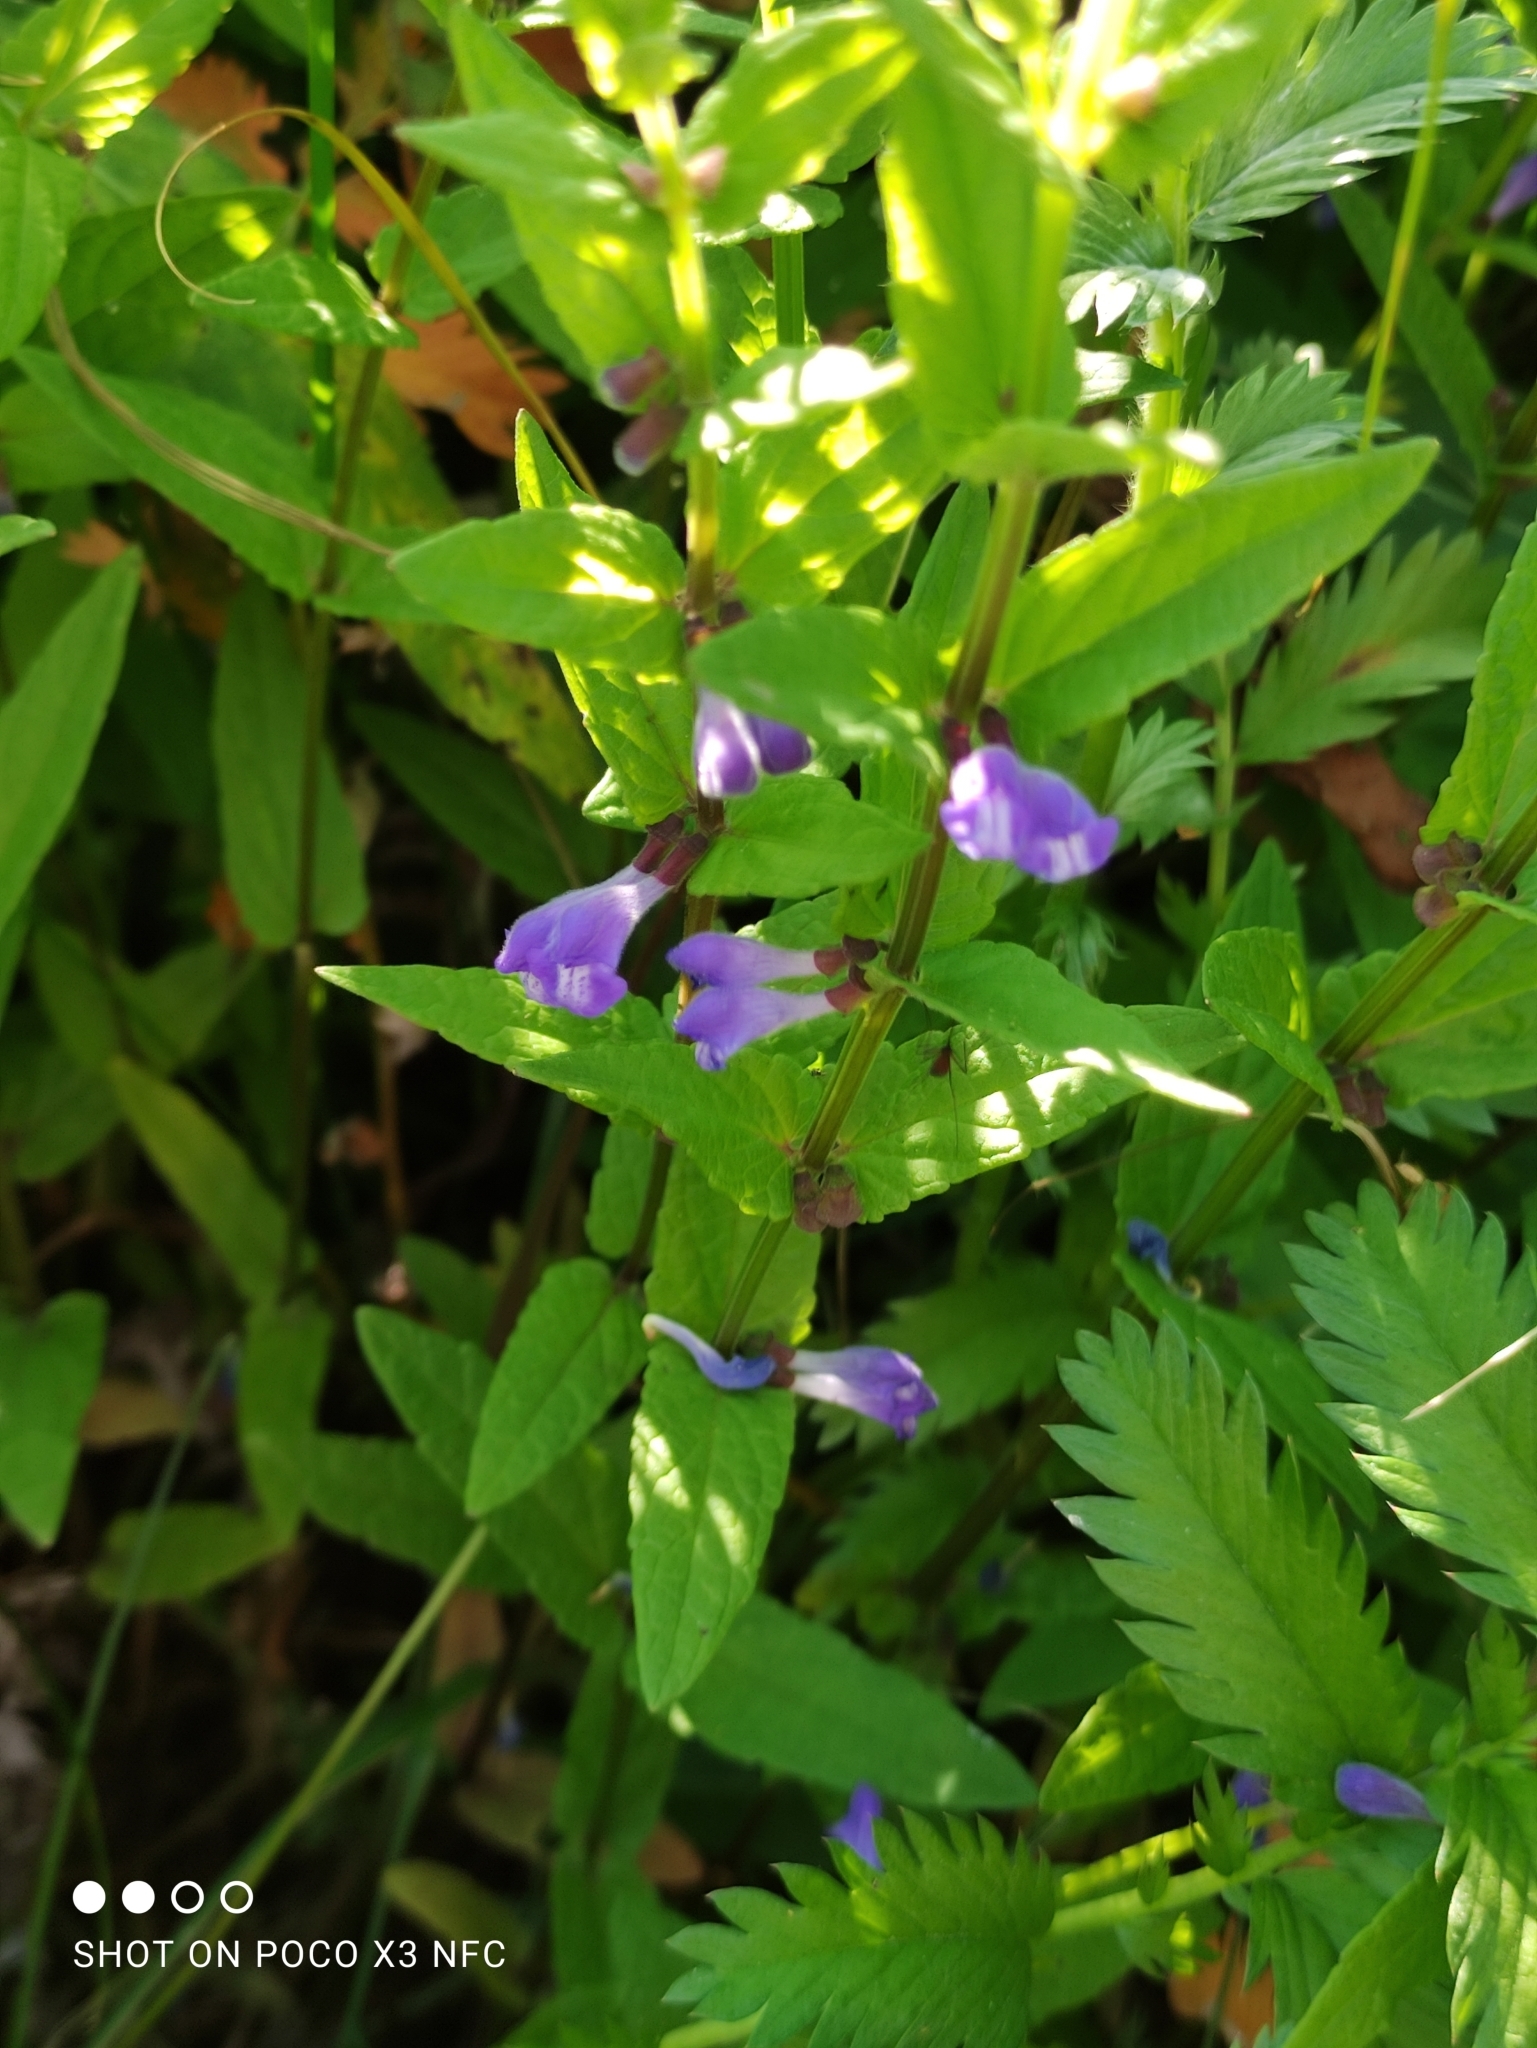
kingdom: Plantae
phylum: Tracheophyta
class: Magnoliopsida
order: Lamiales
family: Lamiaceae
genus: Scutellaria
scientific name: Scutellaria galericulata
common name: Skullcap
